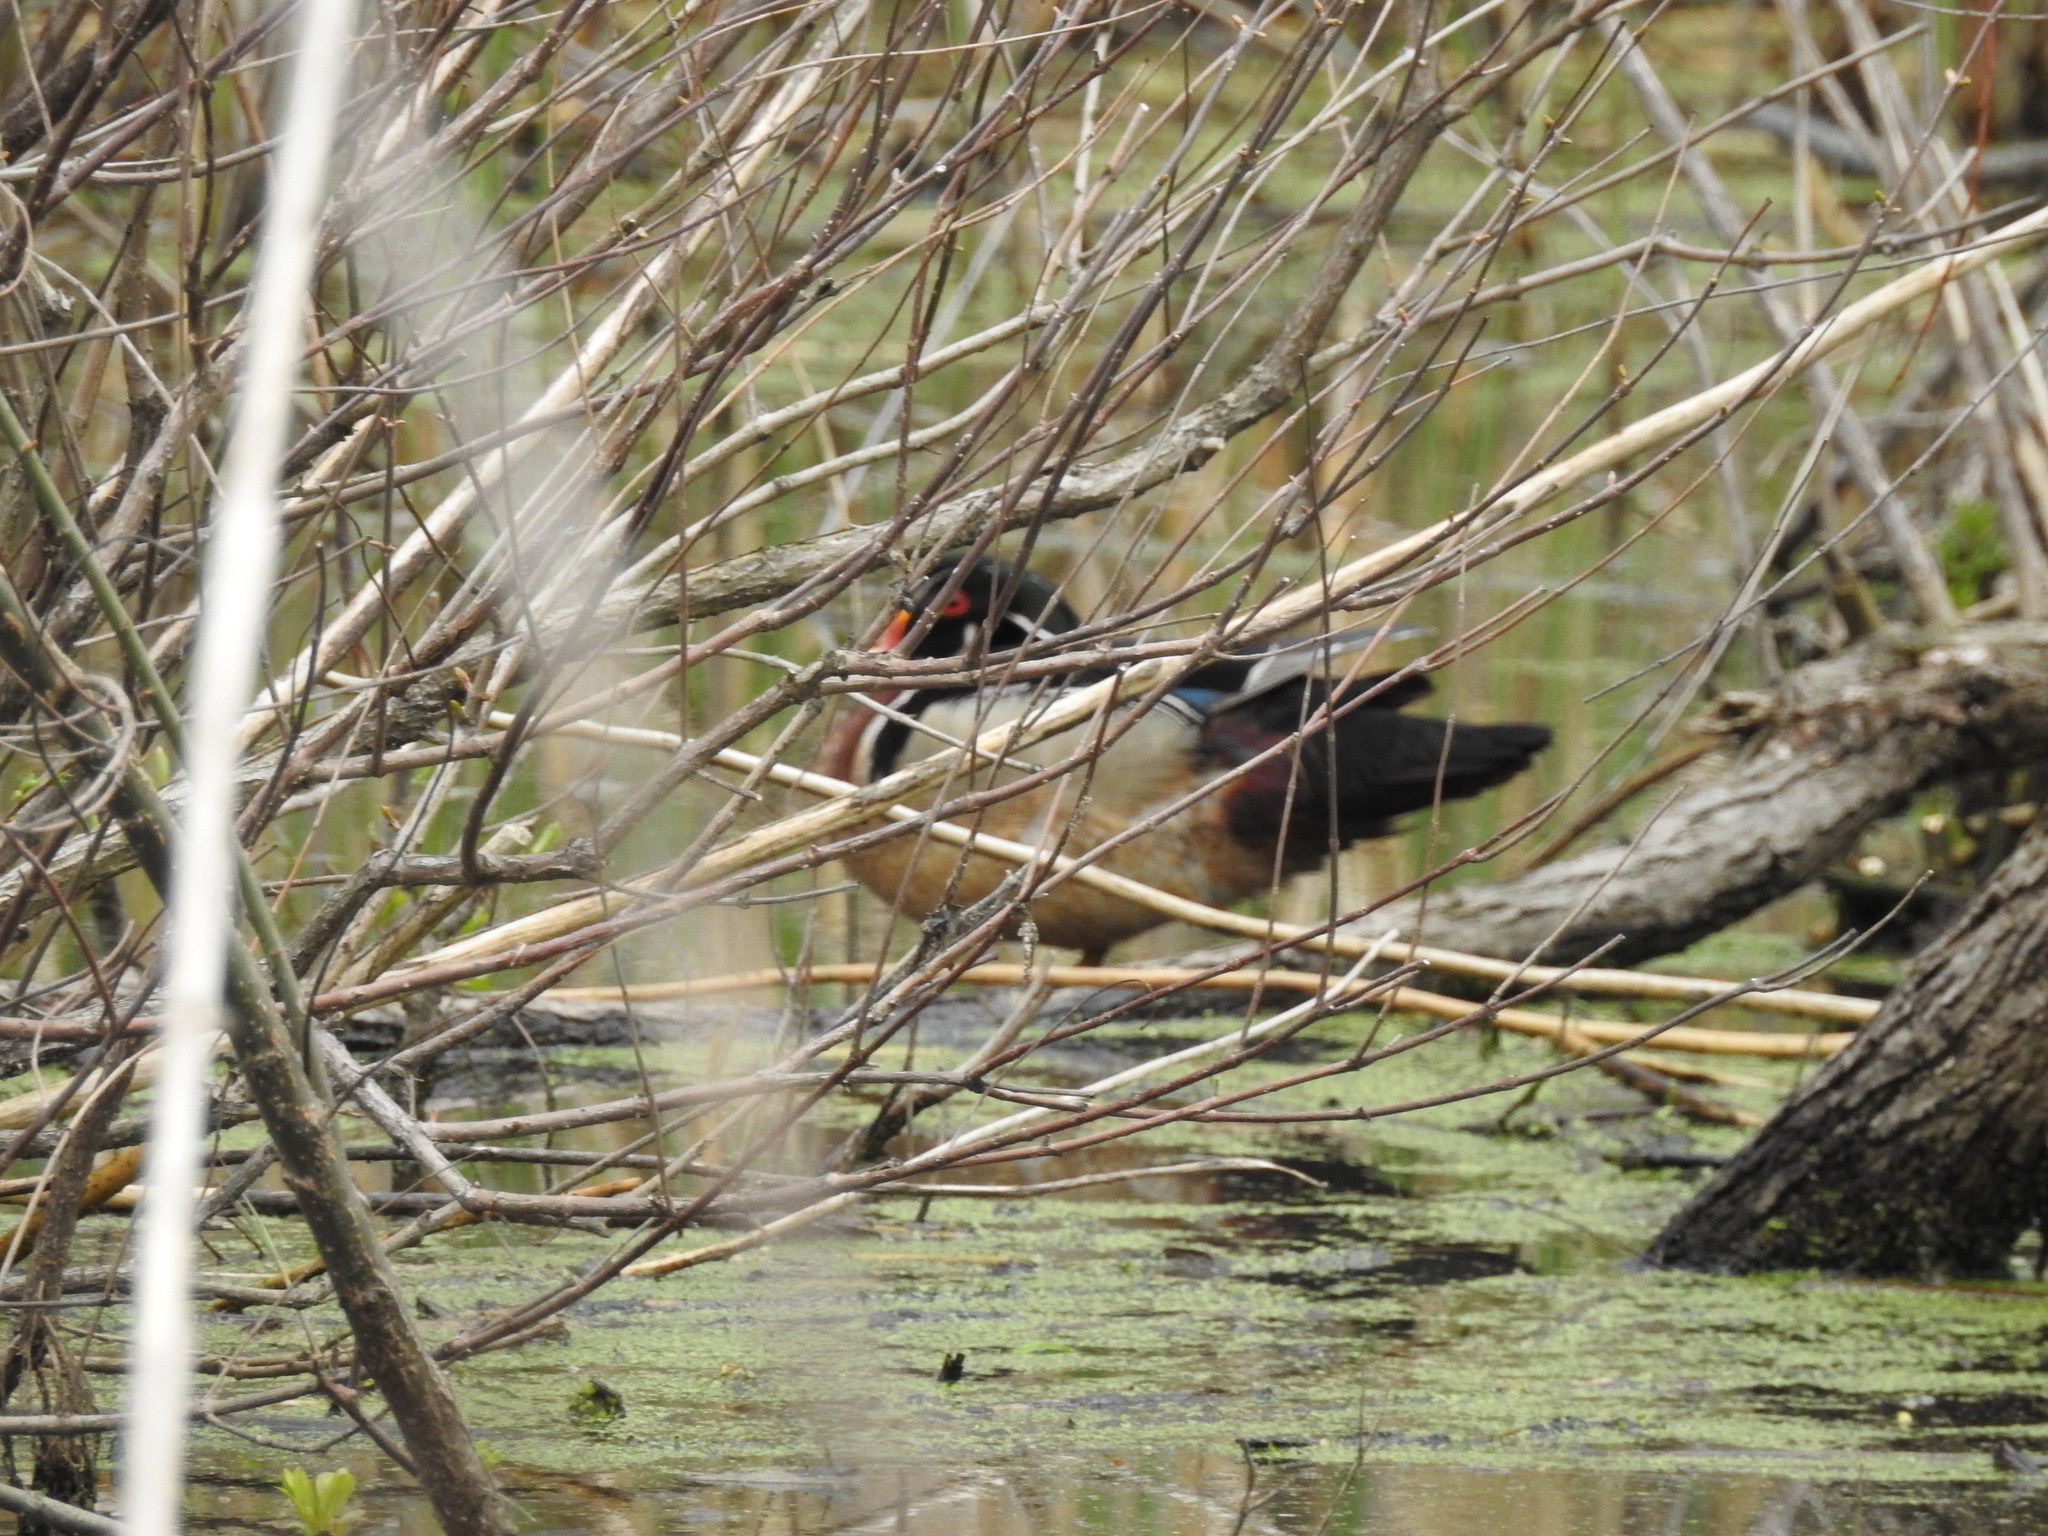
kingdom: Animalia
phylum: Chordata
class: Aves
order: Anseriformes
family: Anatidae
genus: Aix
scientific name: Aix sponsa
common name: Wood duck
